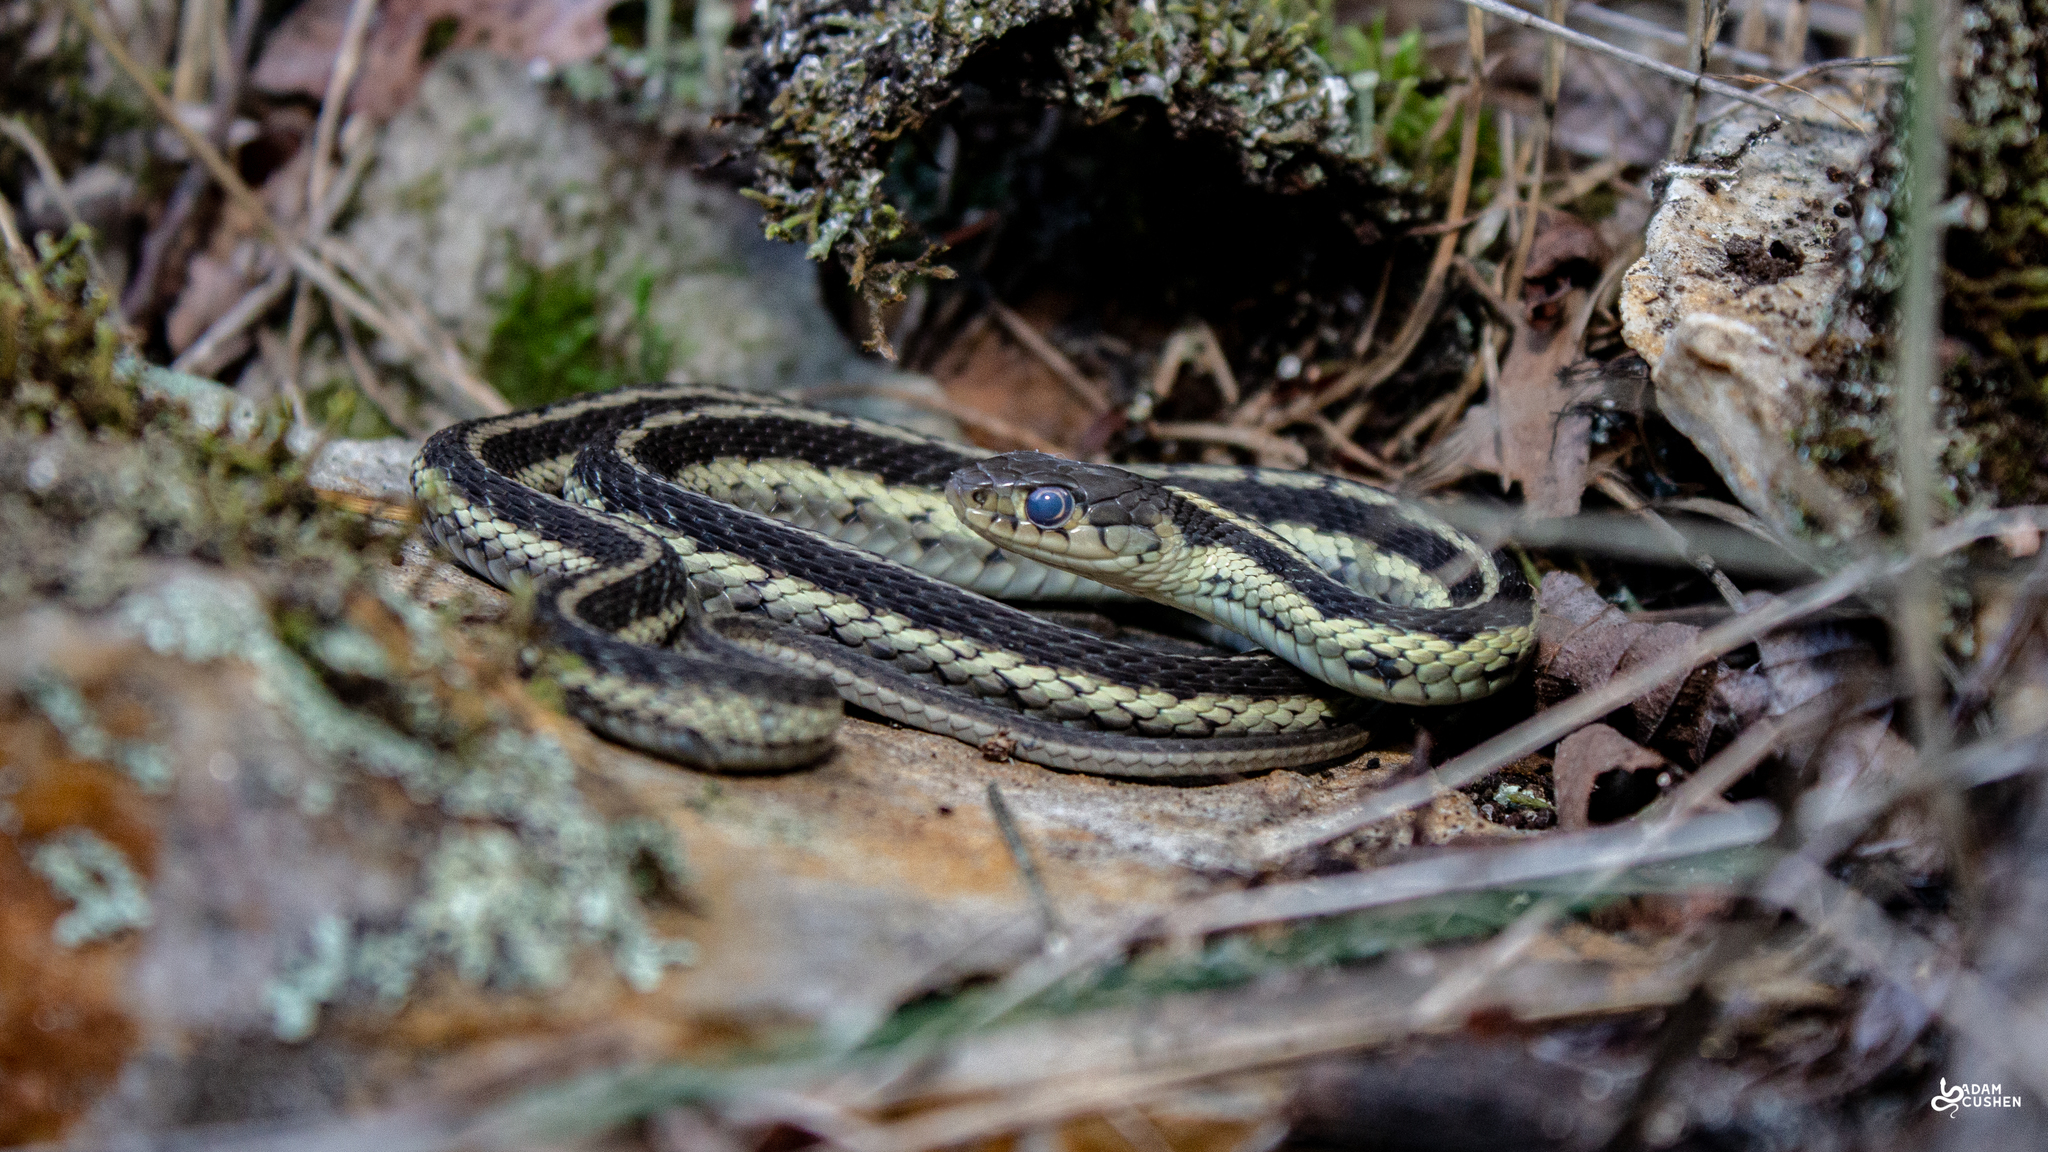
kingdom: Animalia
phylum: Chordata
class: Squamata
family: Colubridae
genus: Thamnophis
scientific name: Thamnophis sirtalis
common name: Common garter snake
